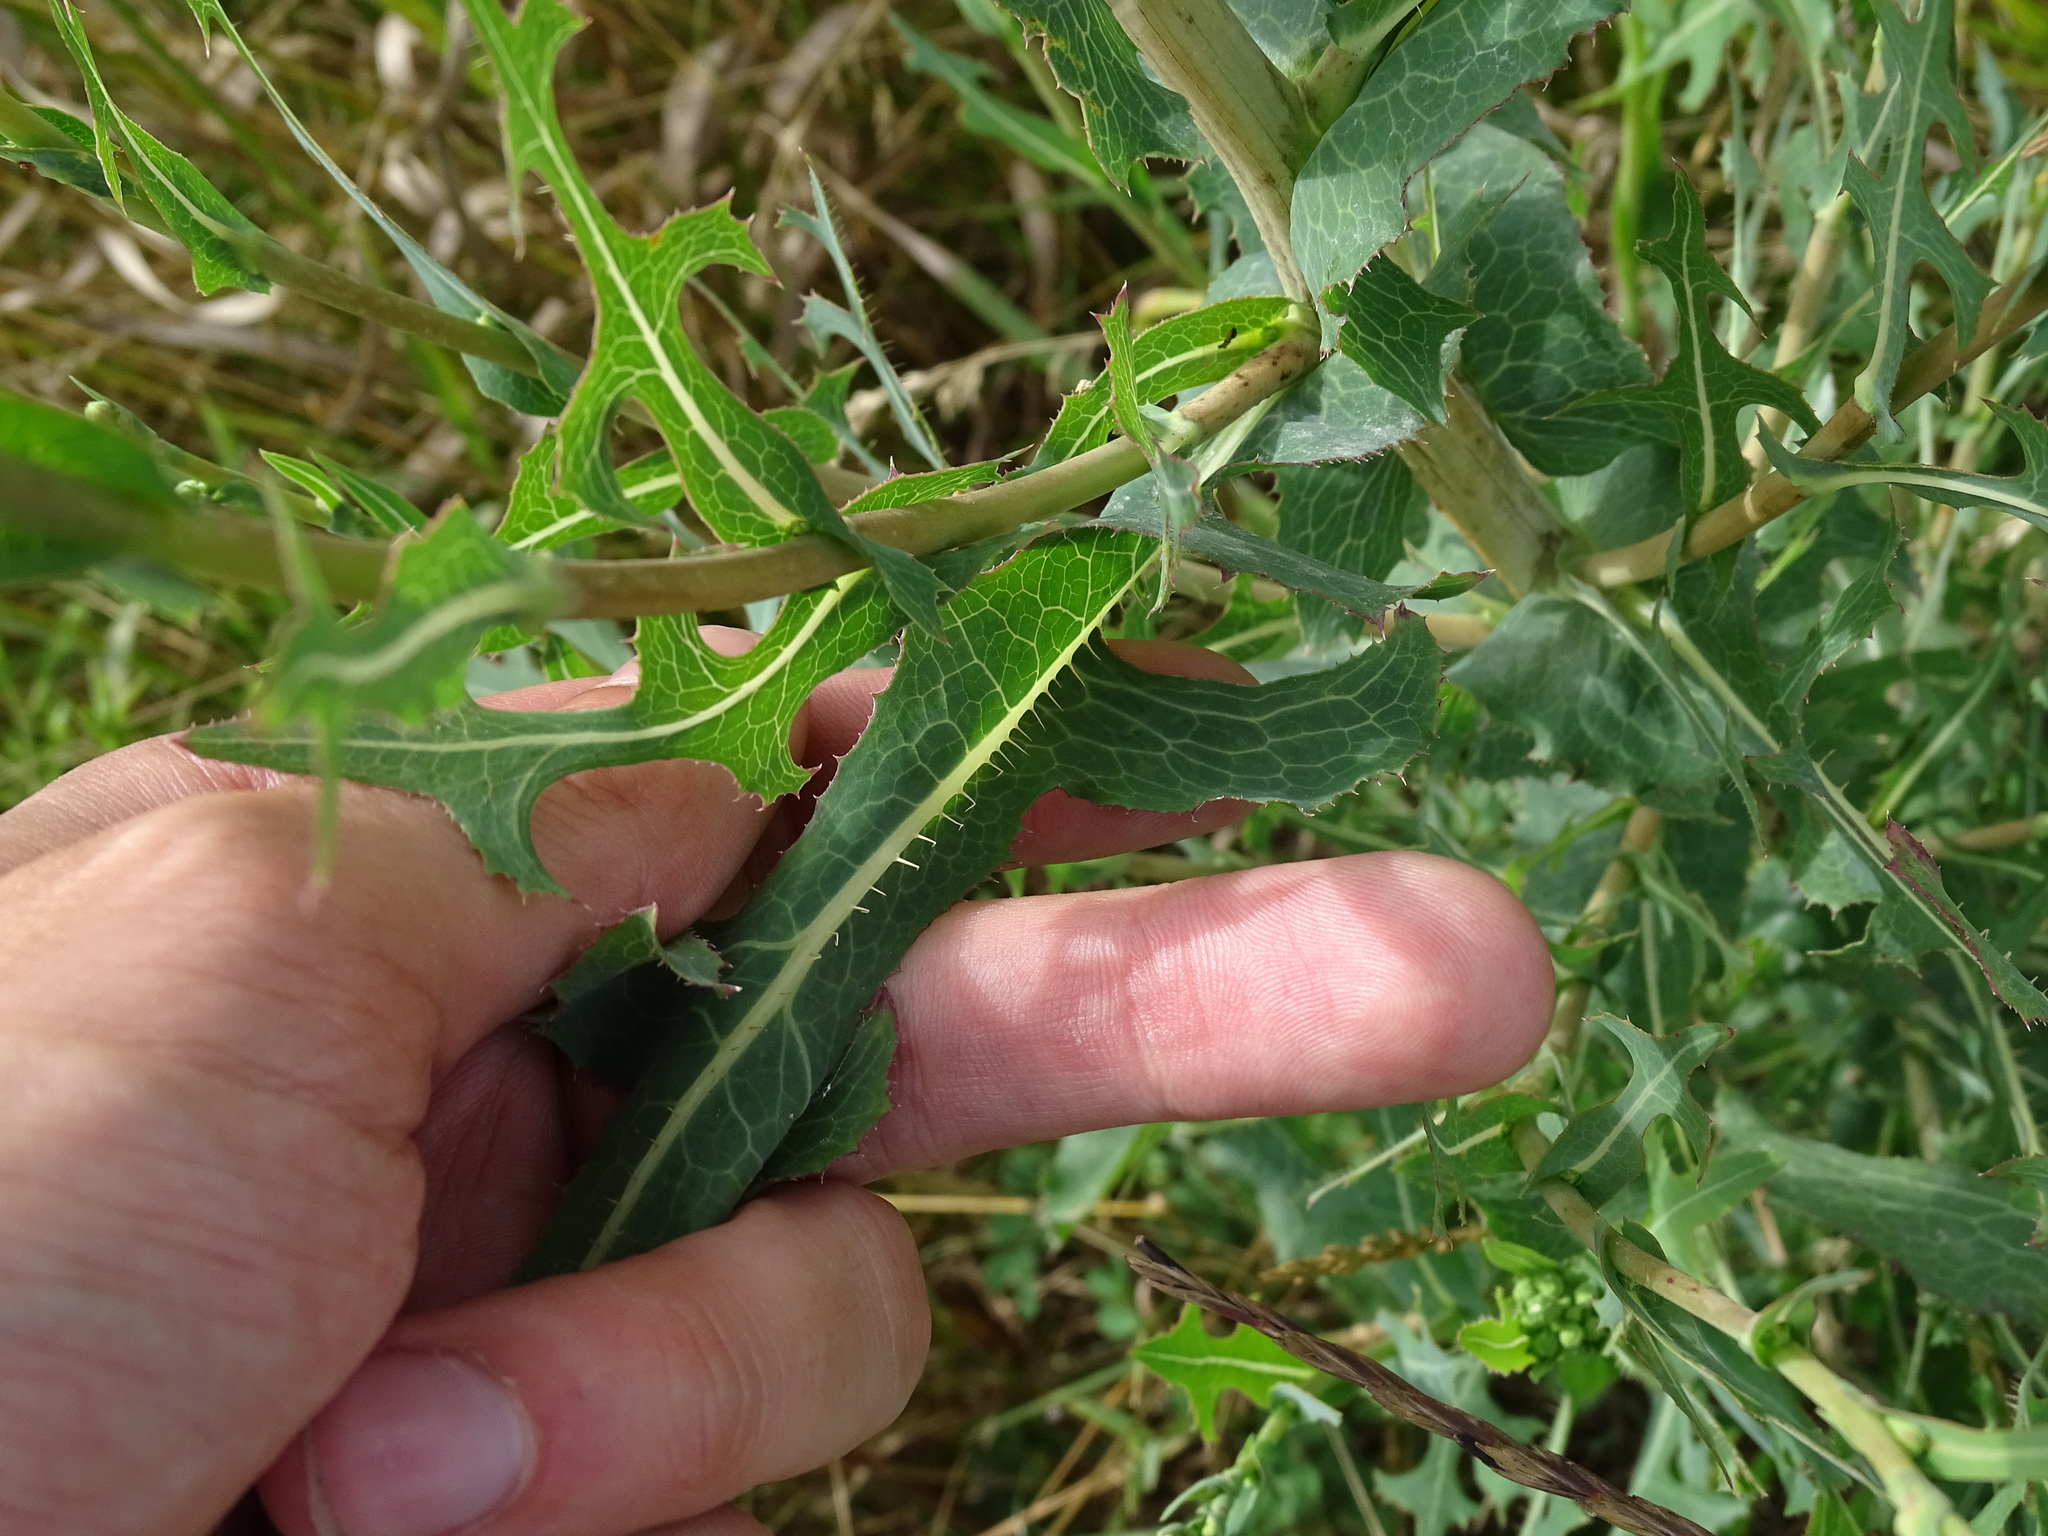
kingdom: Plantae
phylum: Tracheophyta
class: Magnoliopsida
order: Asterales
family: Asteraceae
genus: Lactuca
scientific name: Lactuca serriola
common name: Prickly lettuce
